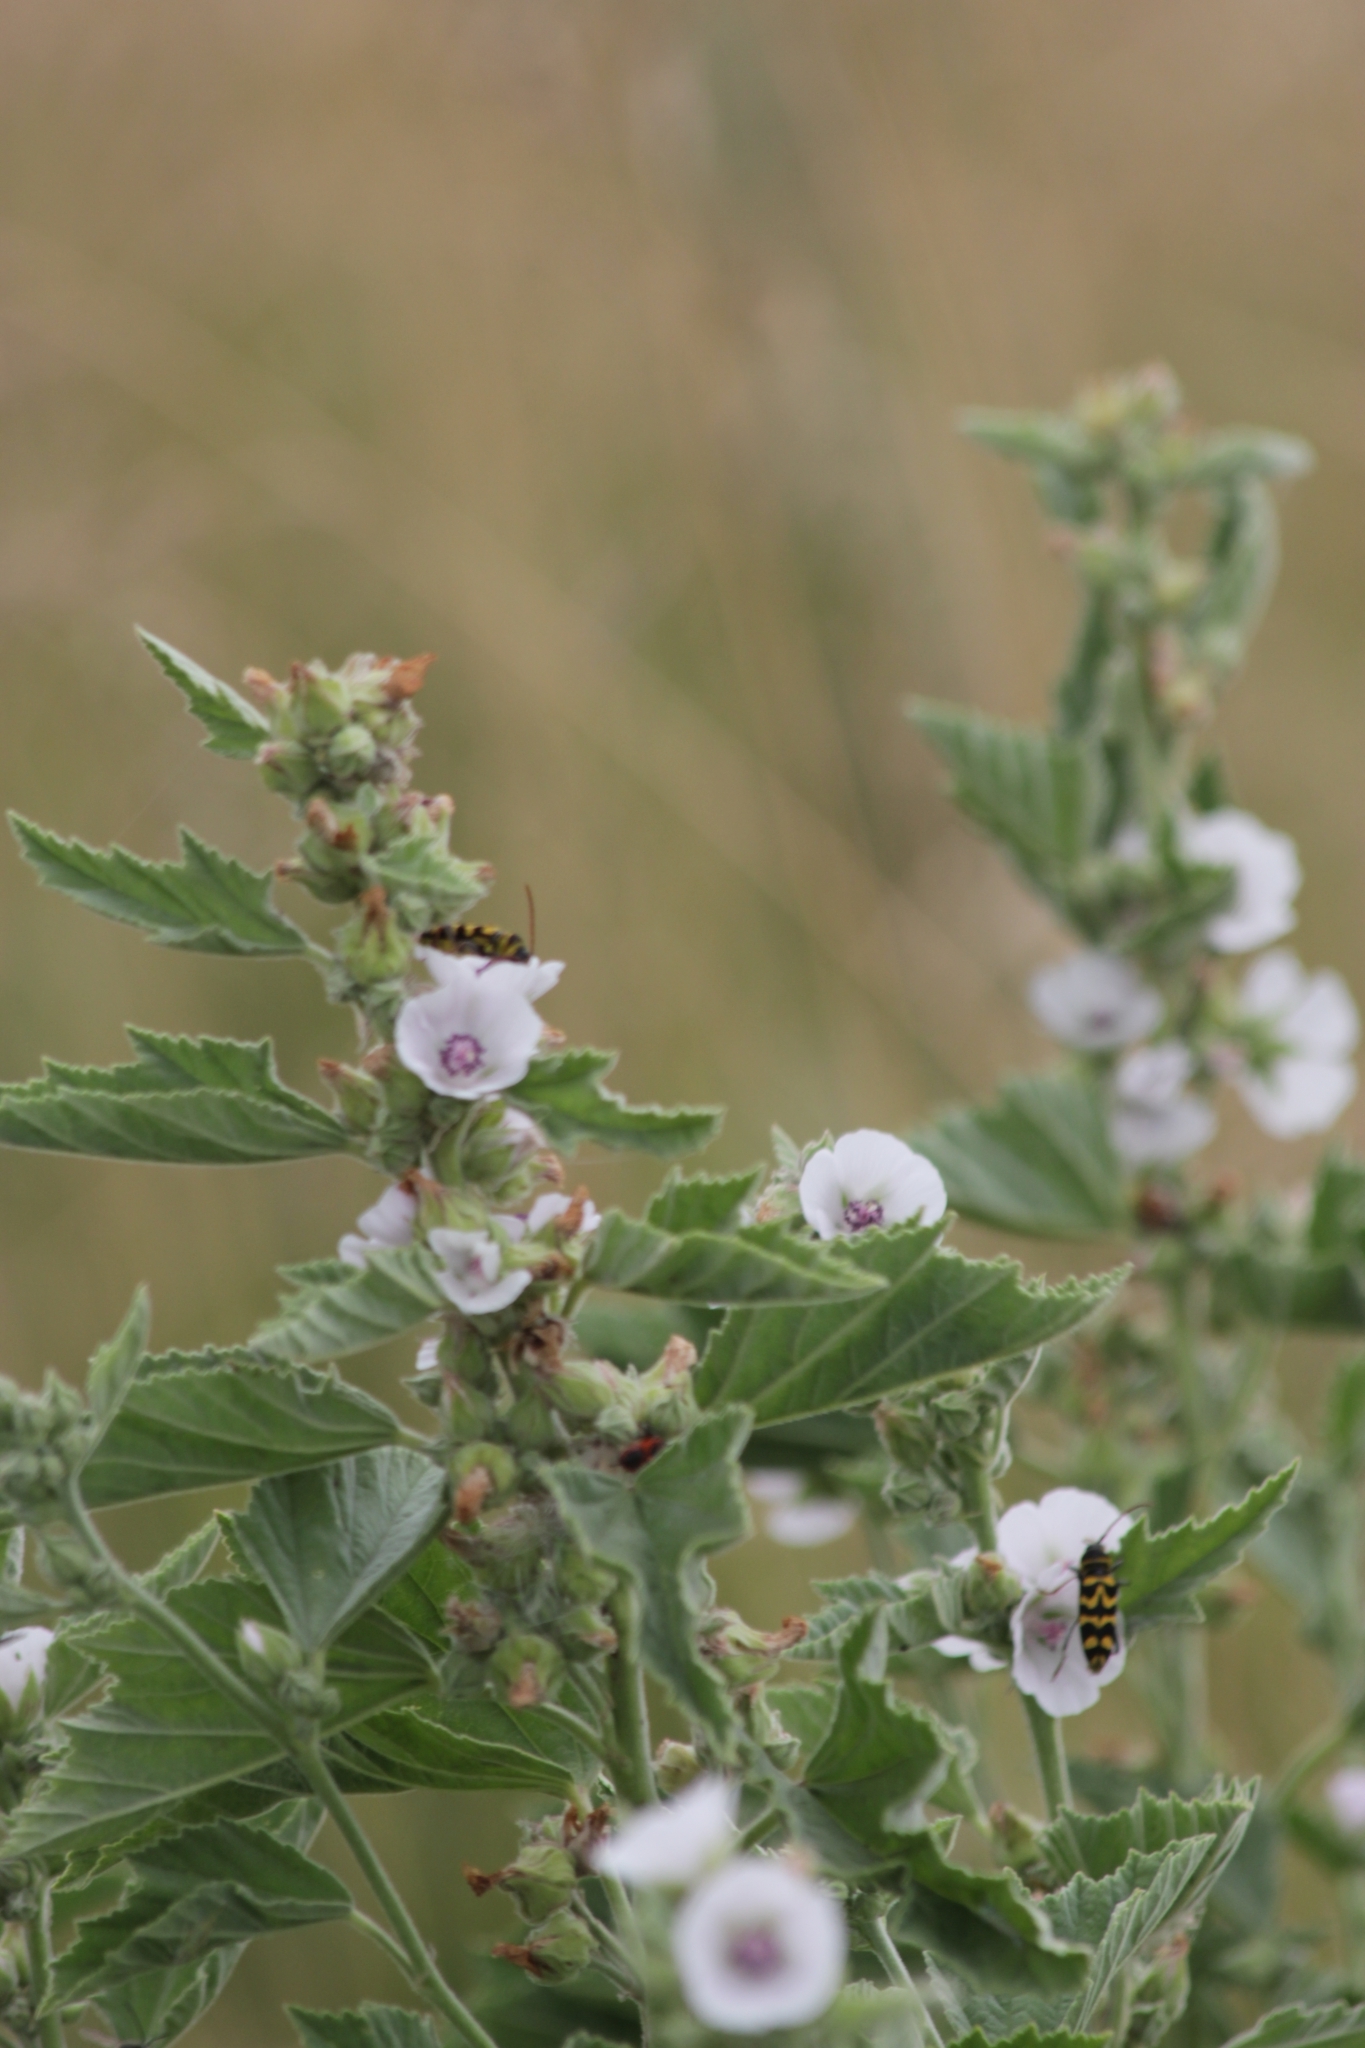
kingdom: Plantae
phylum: Tracheophyta
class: Magnoliopsida
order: Malvales
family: Malvaceae
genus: Althaea
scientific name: Althaea officinalis
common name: Marsh-mallow
